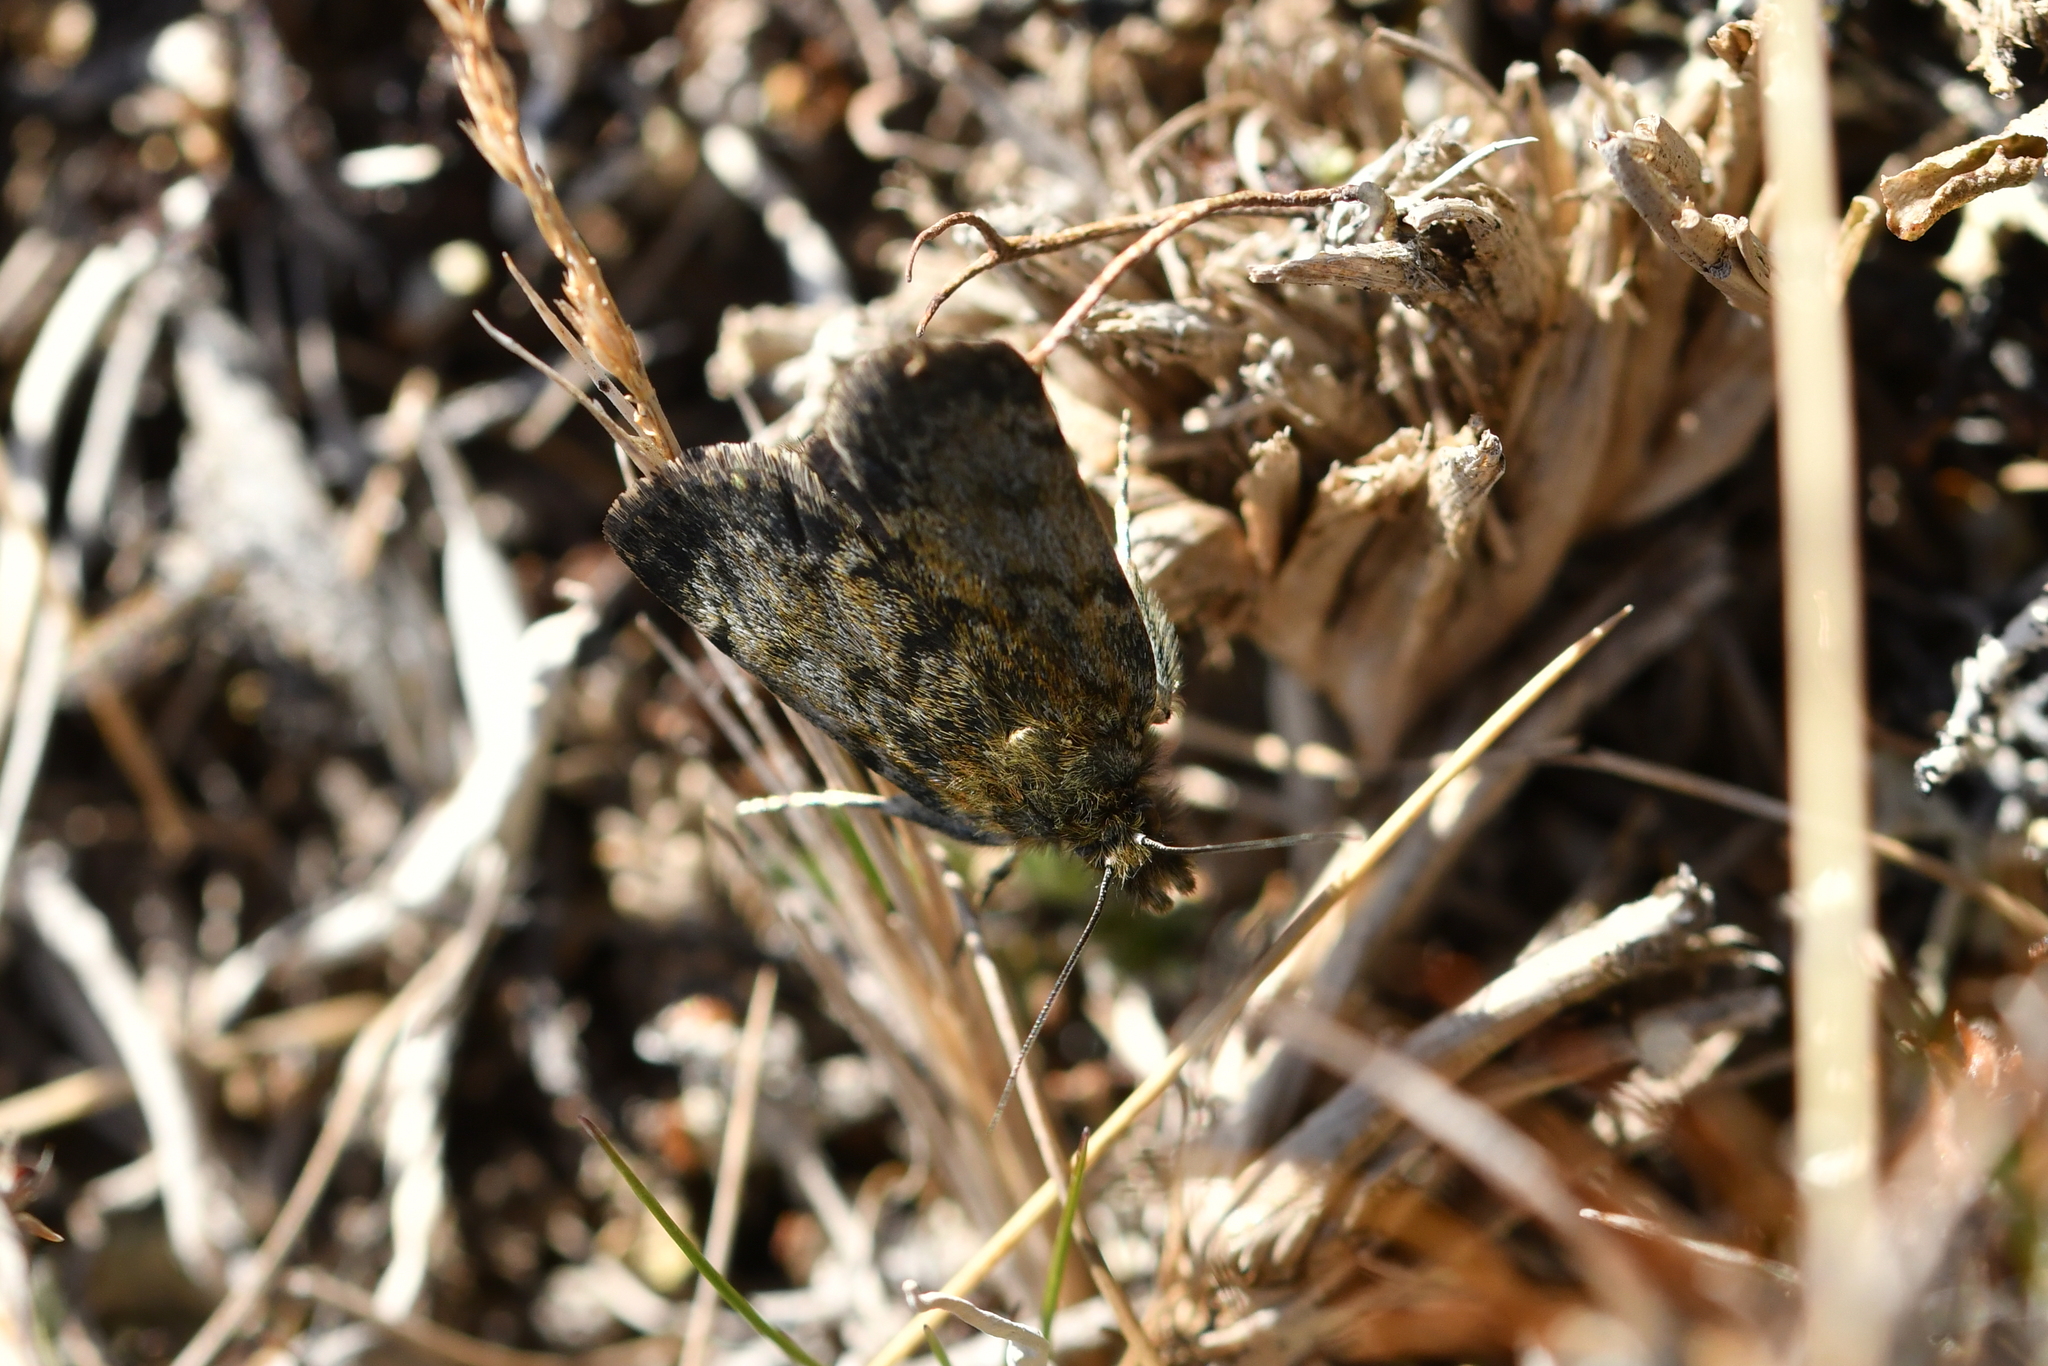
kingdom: Animalia
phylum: Arthropoda
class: Insecta
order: Lepidoptera
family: Crambidae
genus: Tawhitia
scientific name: Tawhitia glaucophanes
